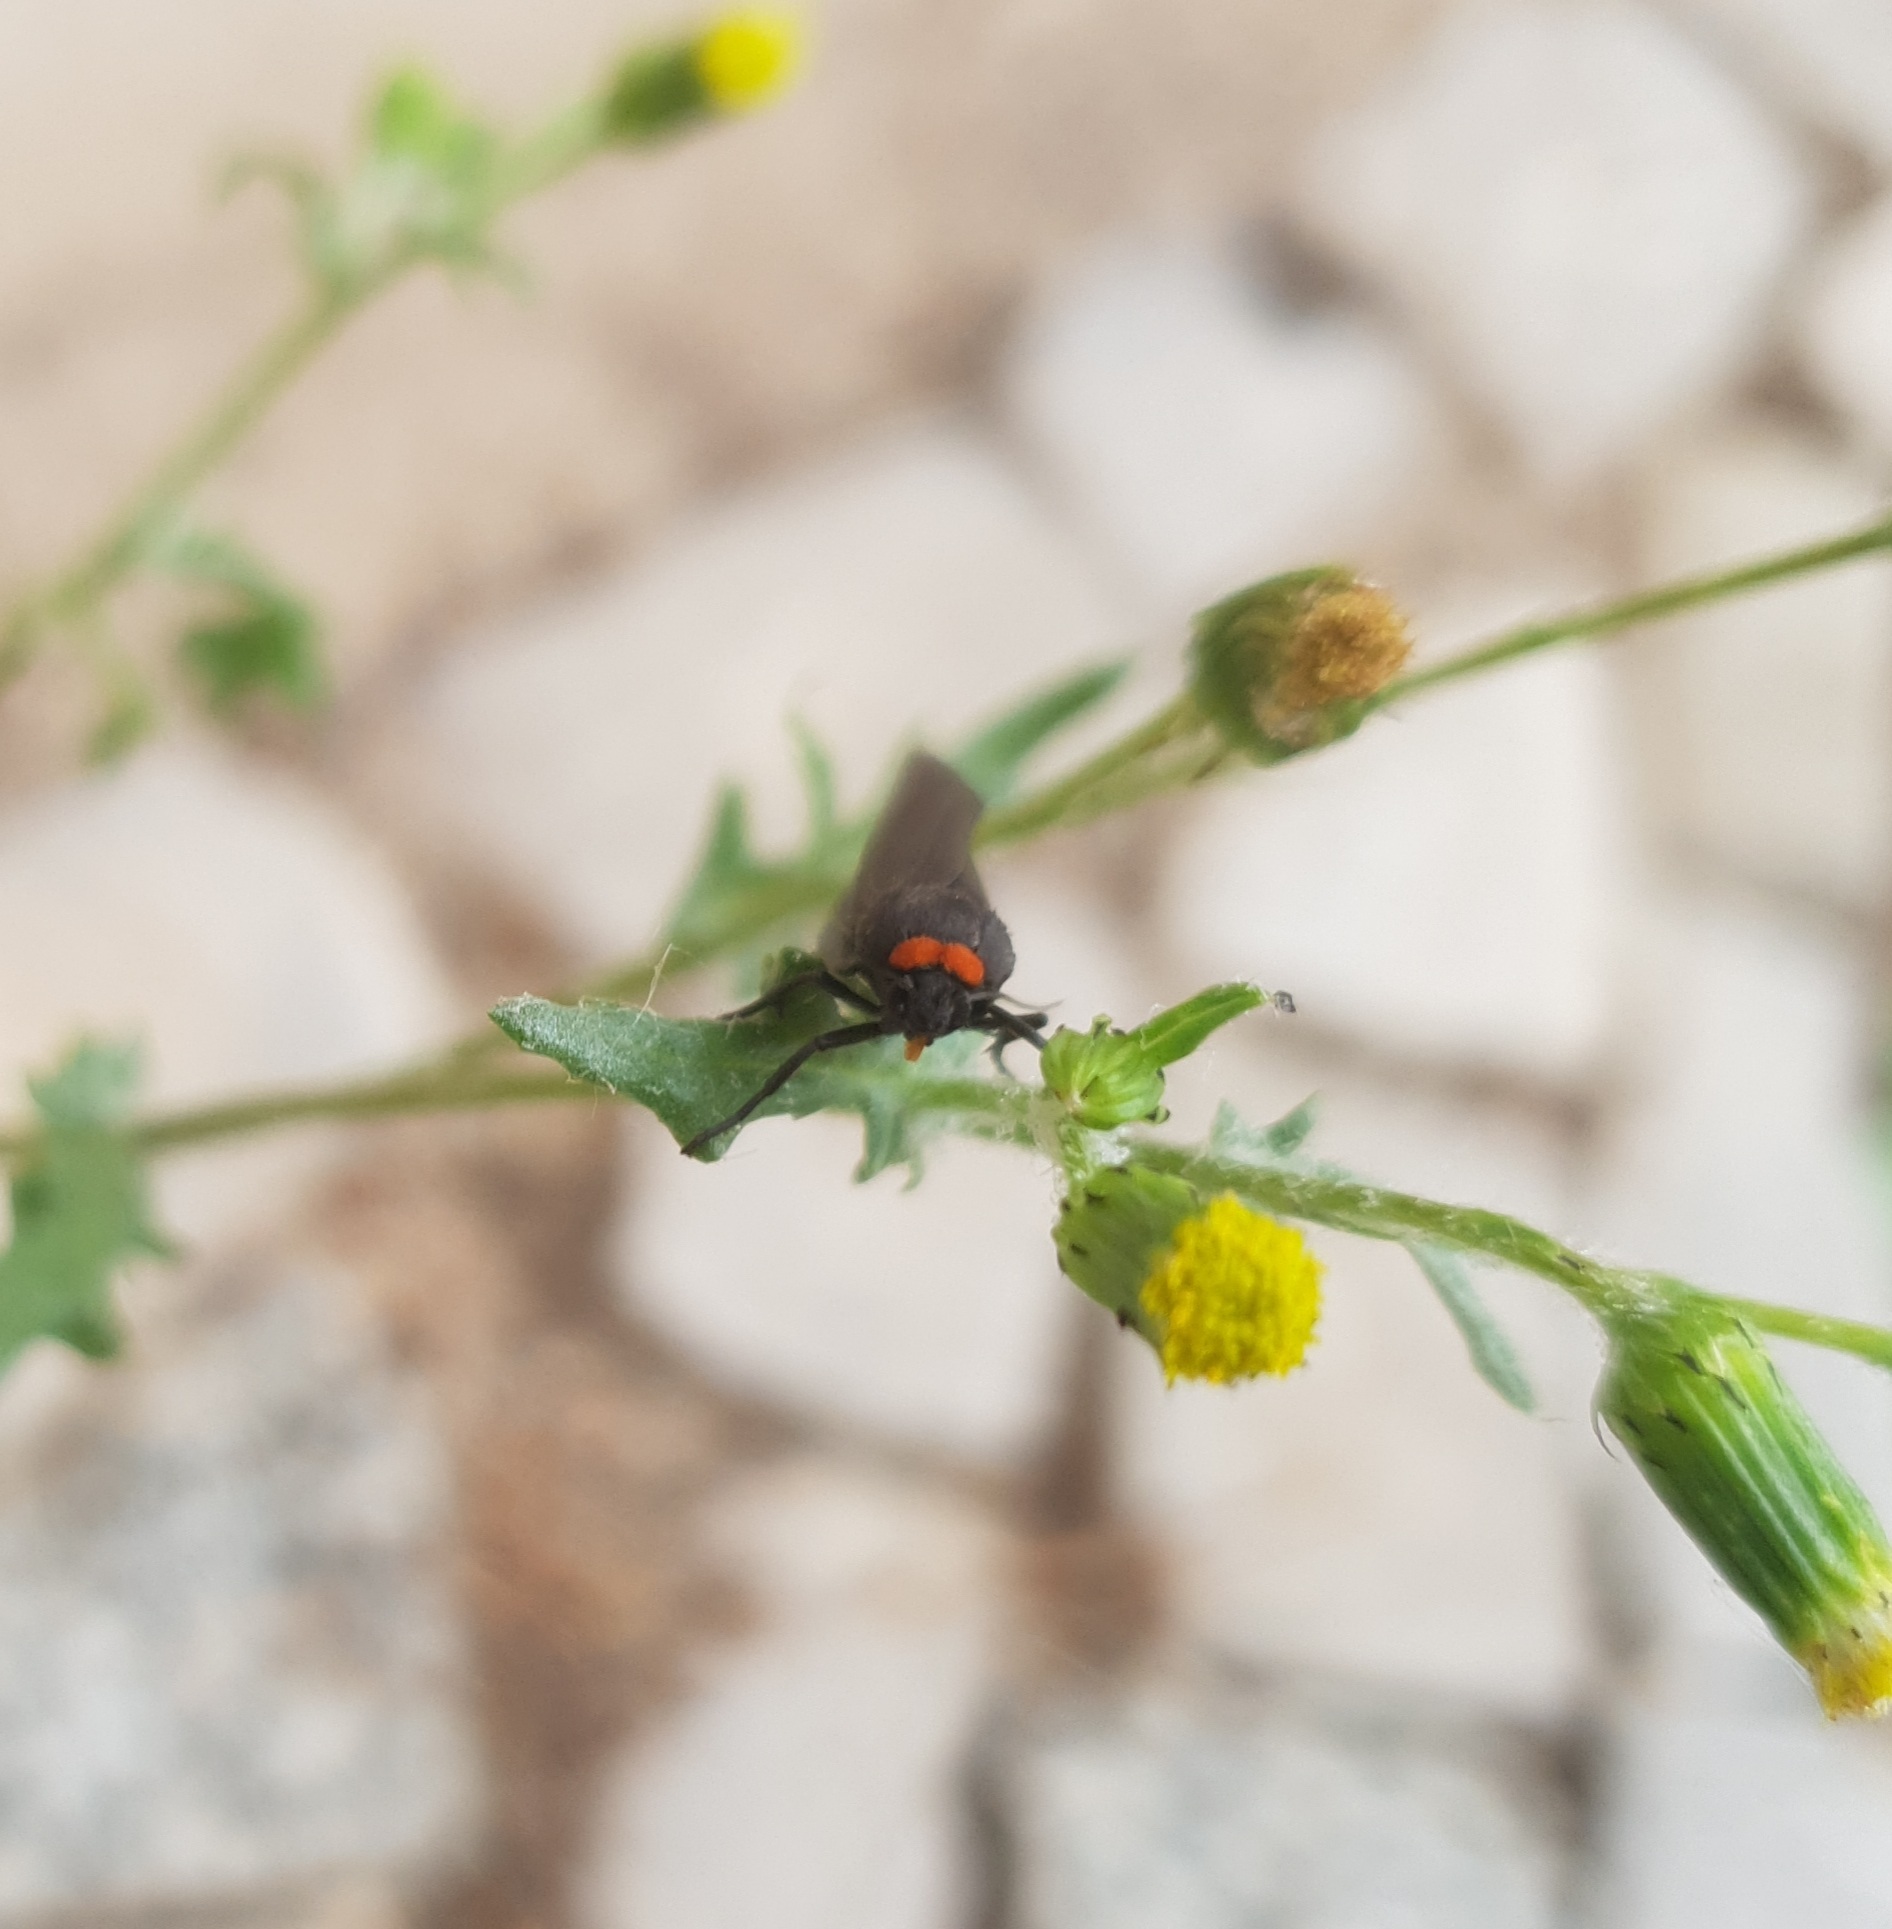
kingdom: Animalia
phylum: Arthropoda
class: Insecta
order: Lepidoptera
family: Erebidae
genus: Atolmis
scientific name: Atolmis rubricollis
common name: Red-necked footman
